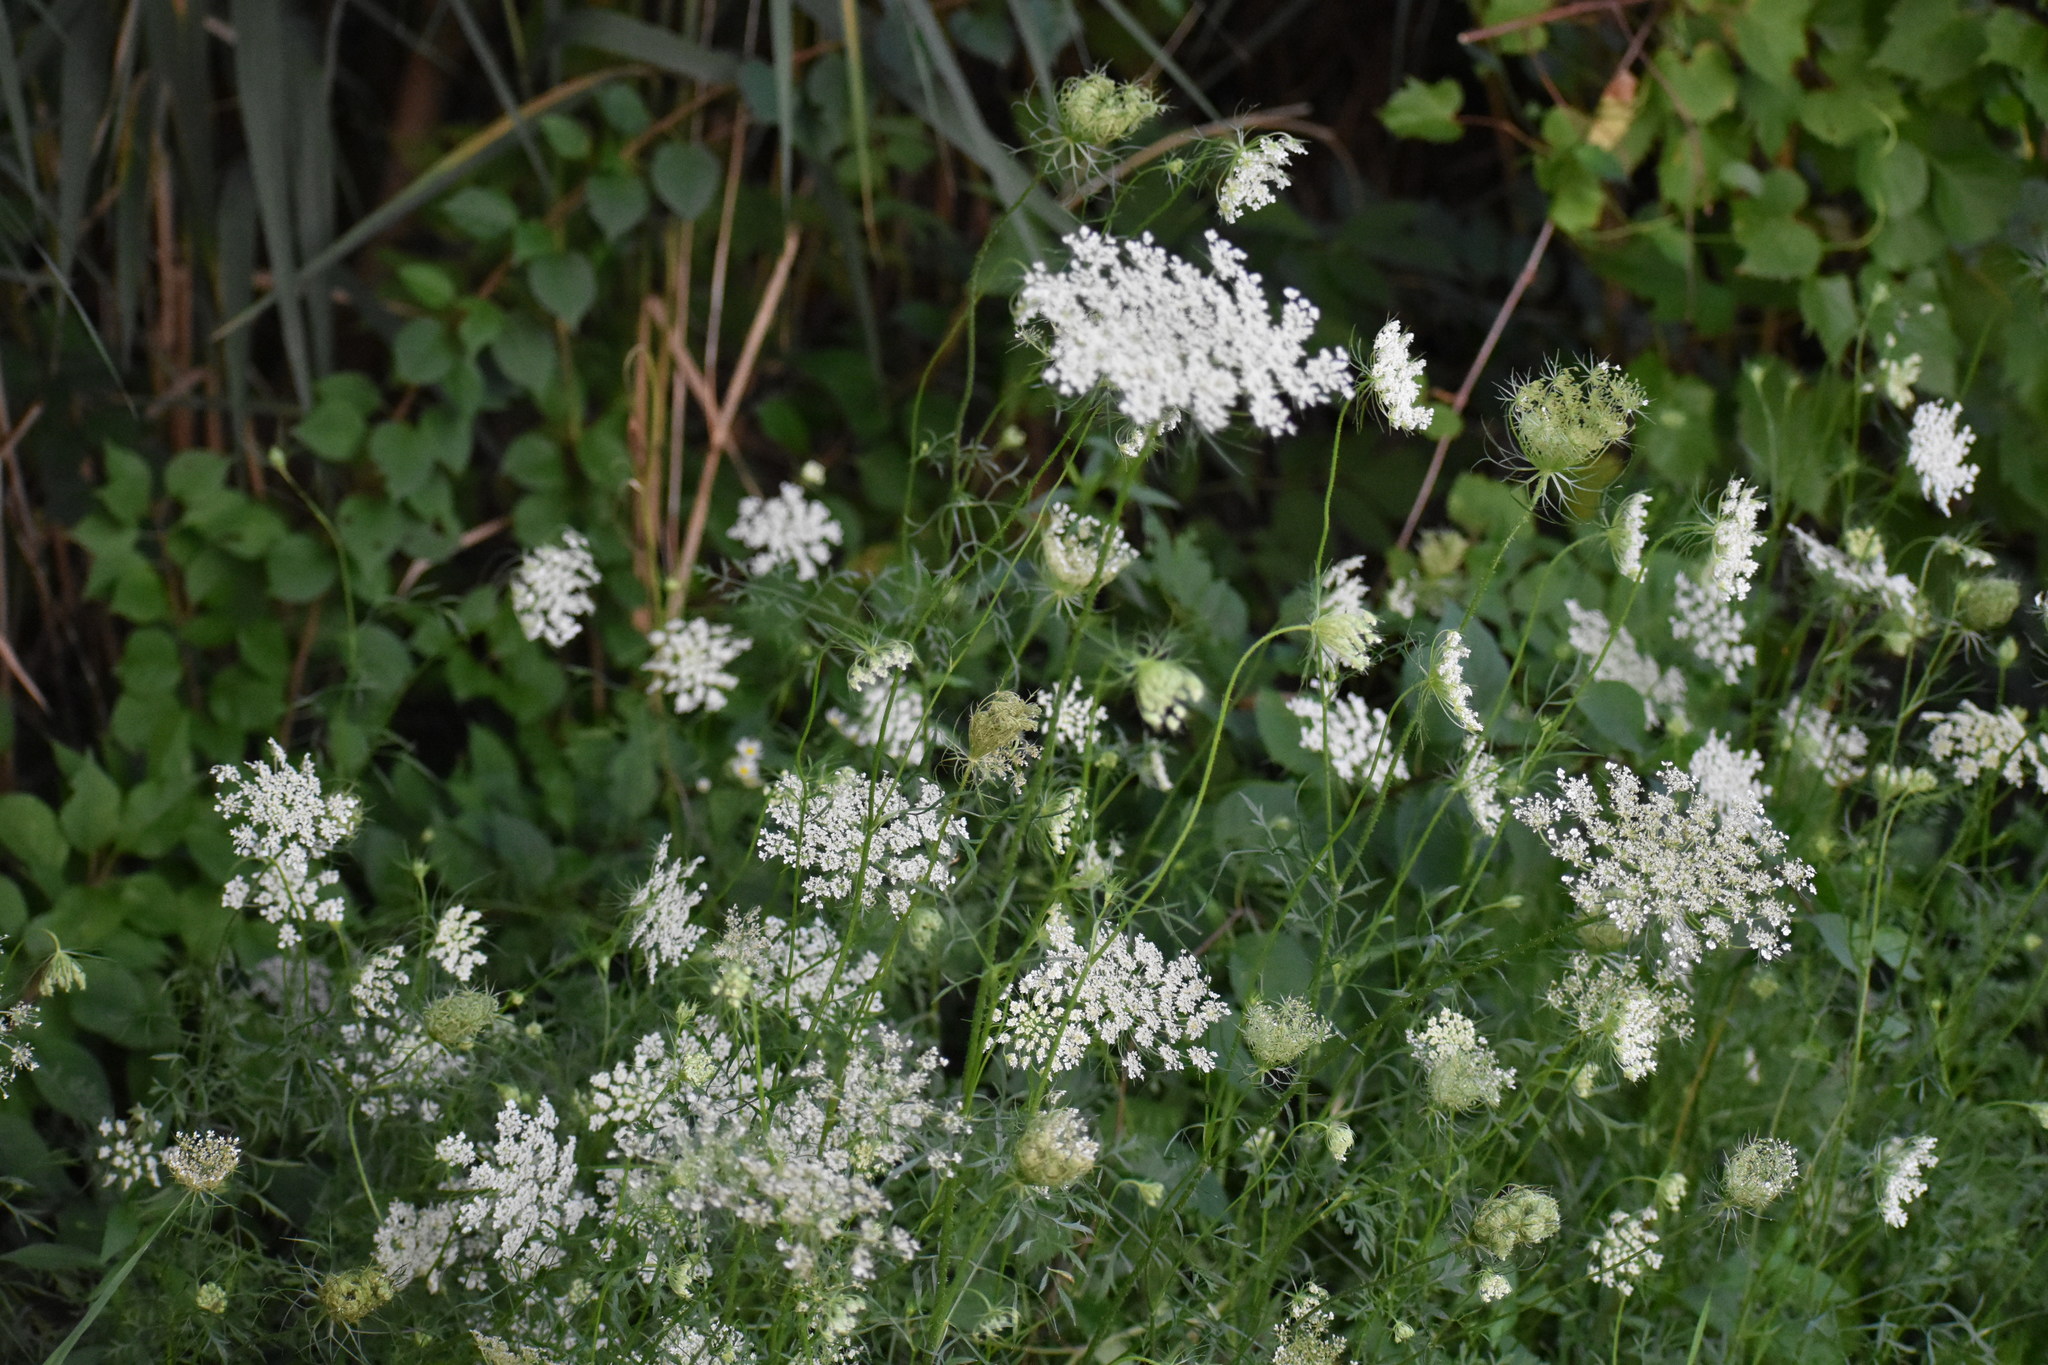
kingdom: Plantae
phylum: Tracheophyta
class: Magnoliopsida
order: Apiales
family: Apiaceae
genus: Daucus
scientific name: Daucus carota
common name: Wild carrot
